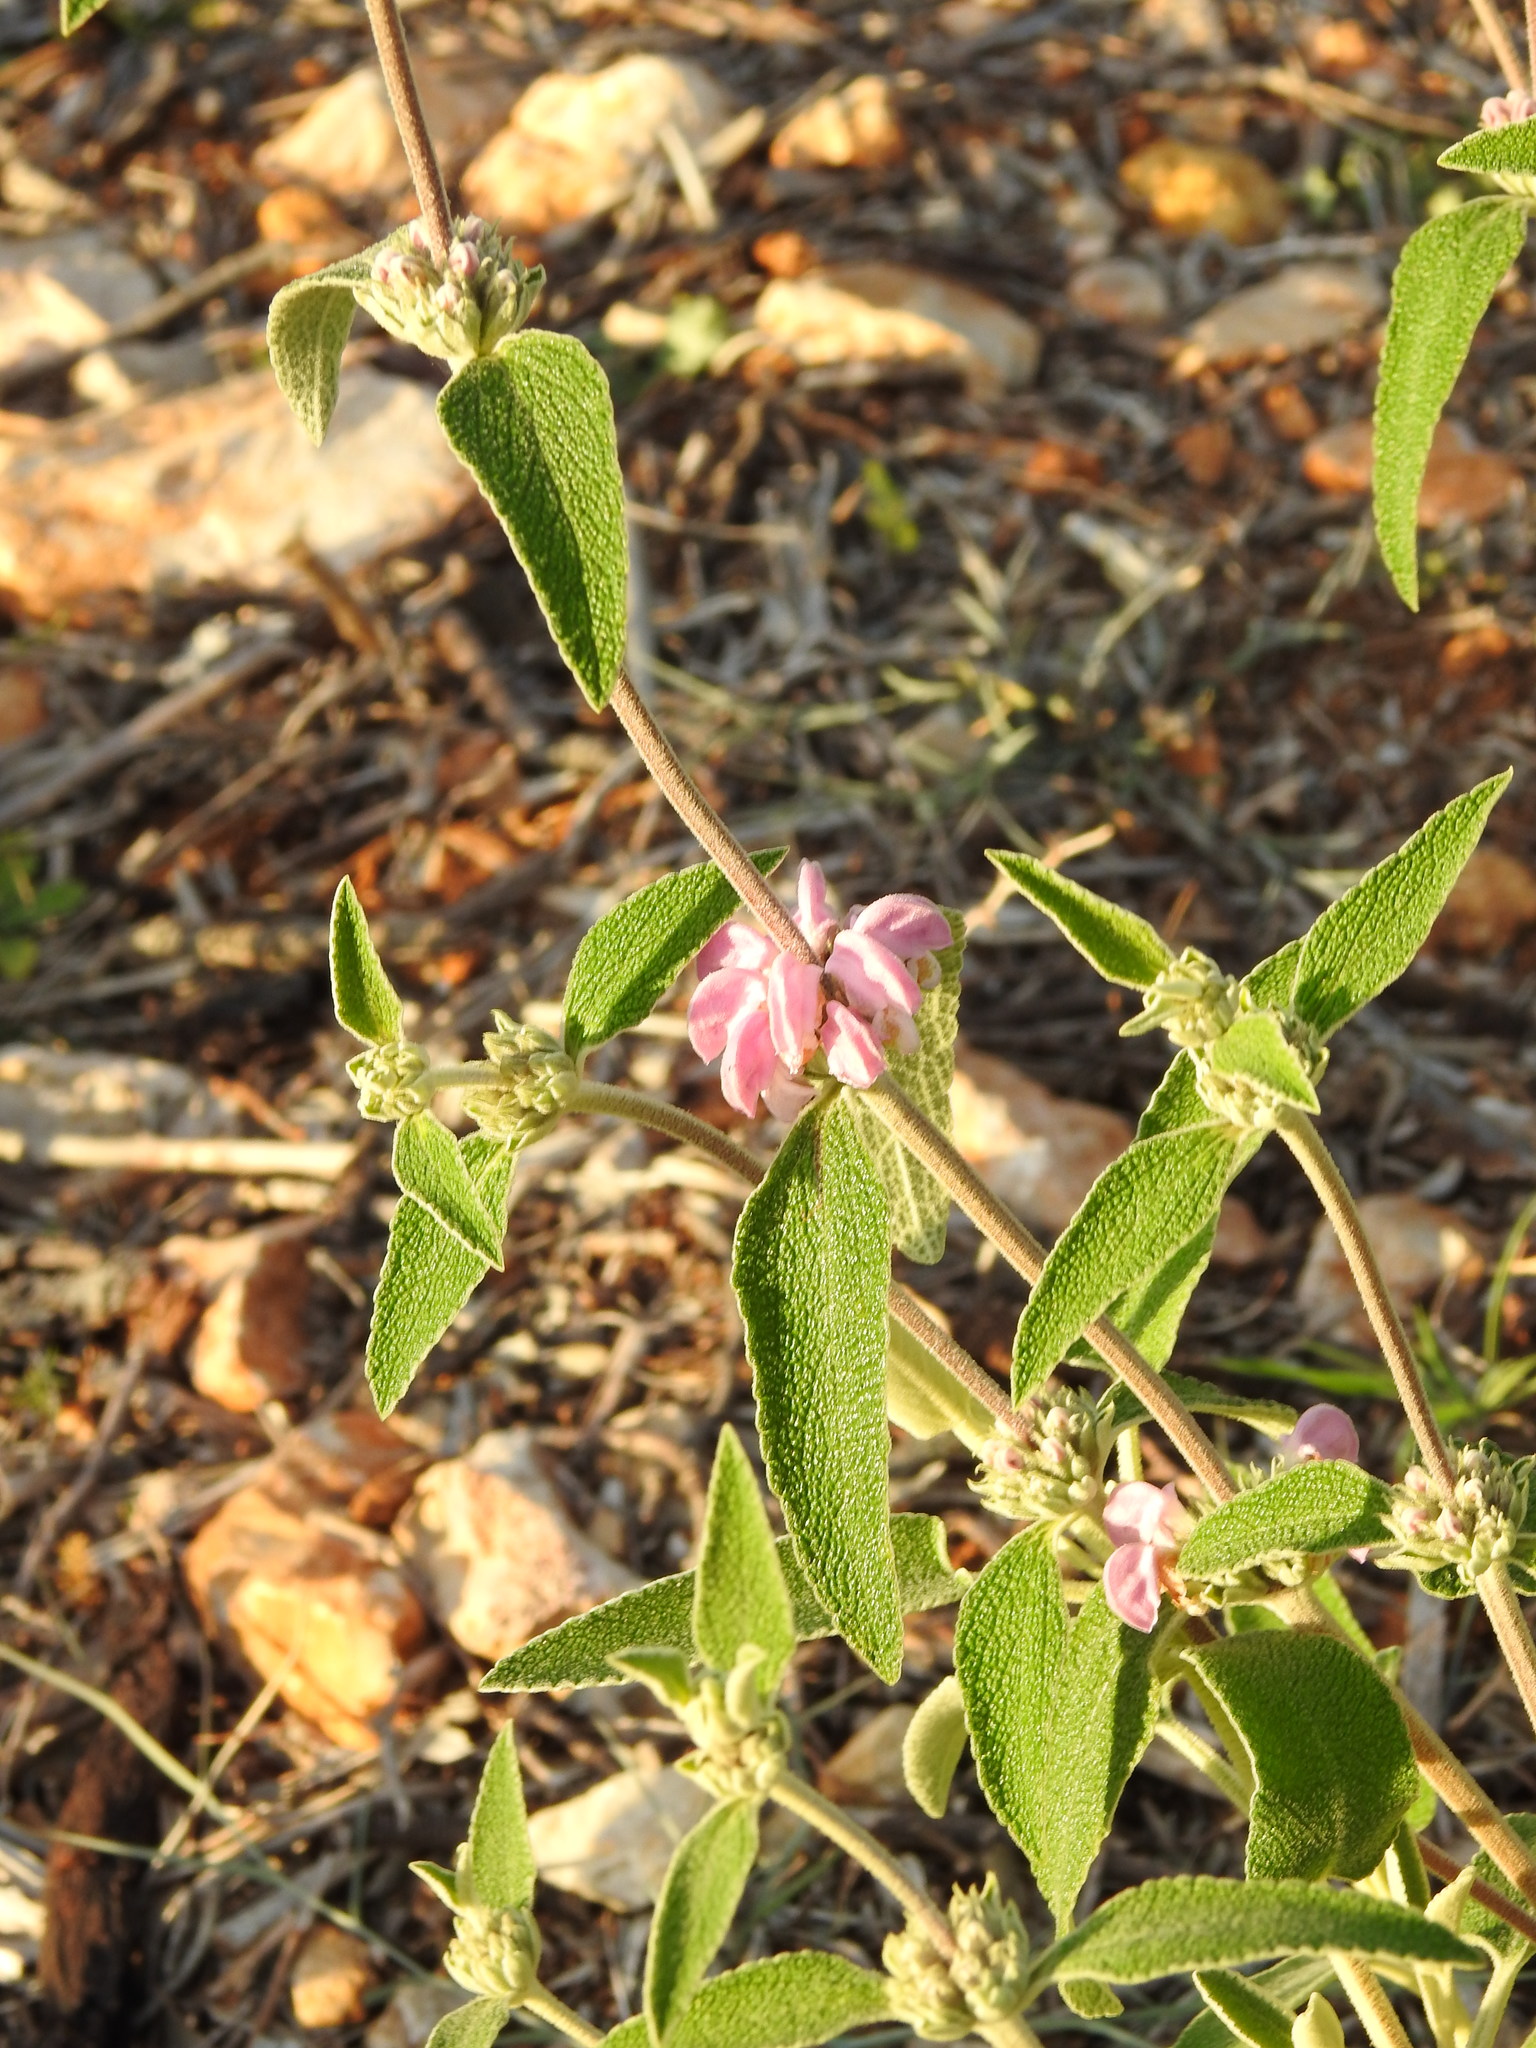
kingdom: Plantae
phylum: Tracheophyta
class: Magnoliopsida
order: Lamiales
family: Lamiaceae
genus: Phlomis
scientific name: Phlomis purpurea
